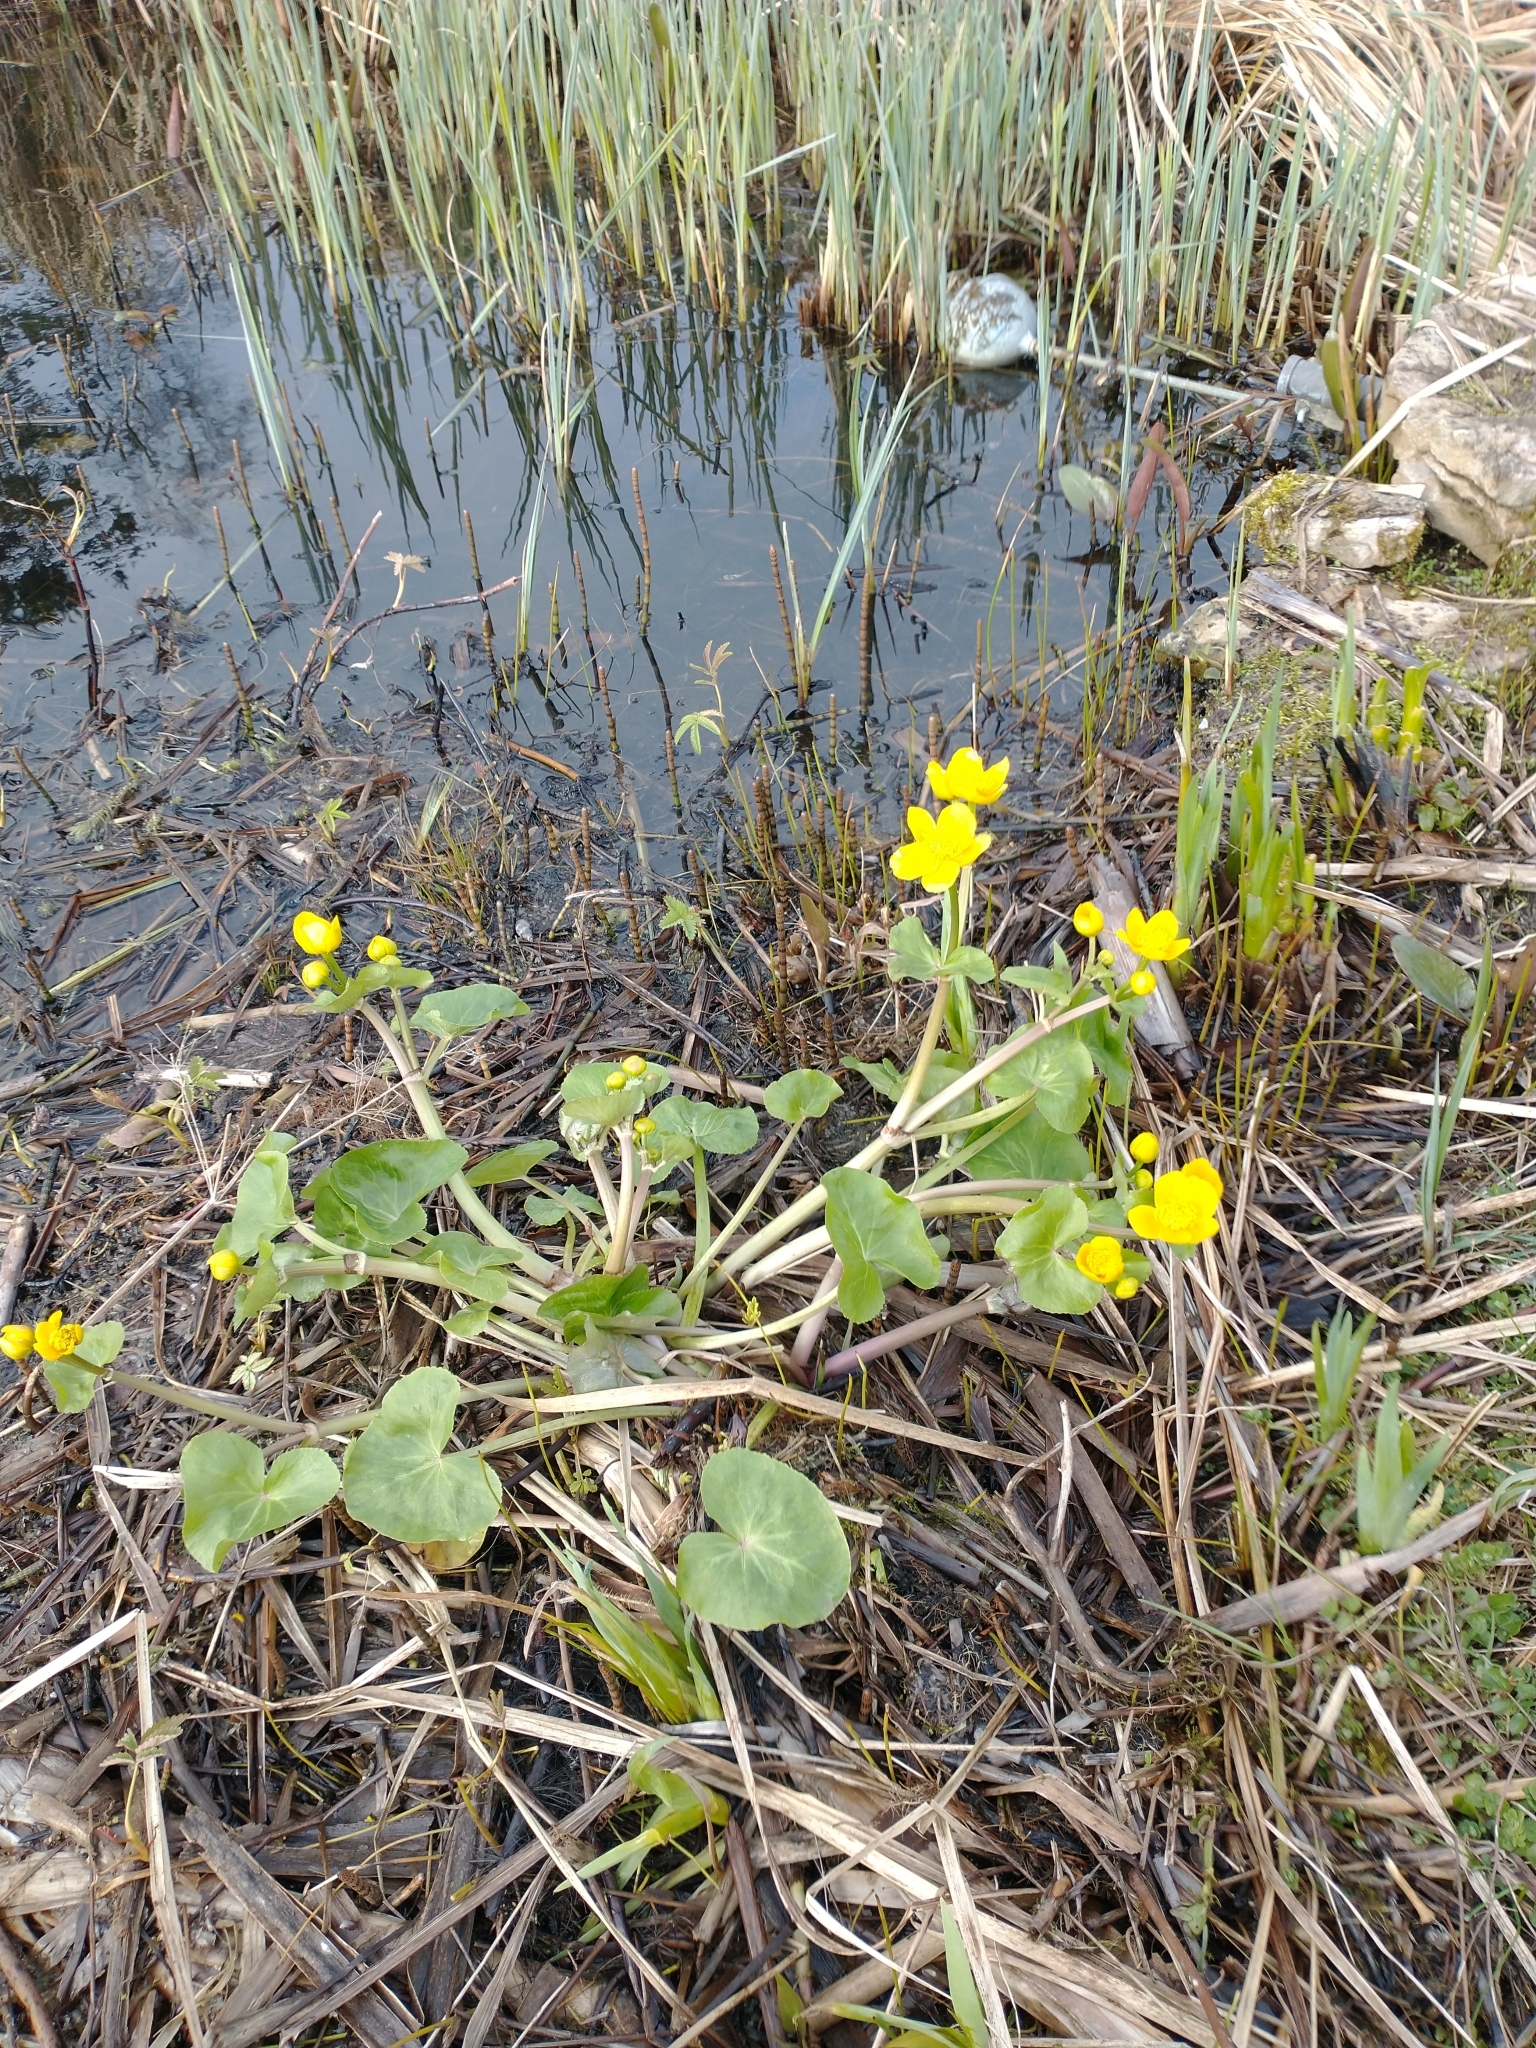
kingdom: Plantae
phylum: Tracheophyta
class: Magnoliopsida
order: Ranunculales
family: Ranunculaceae
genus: Caltha
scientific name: Caltha palustris
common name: Marsh marigold
